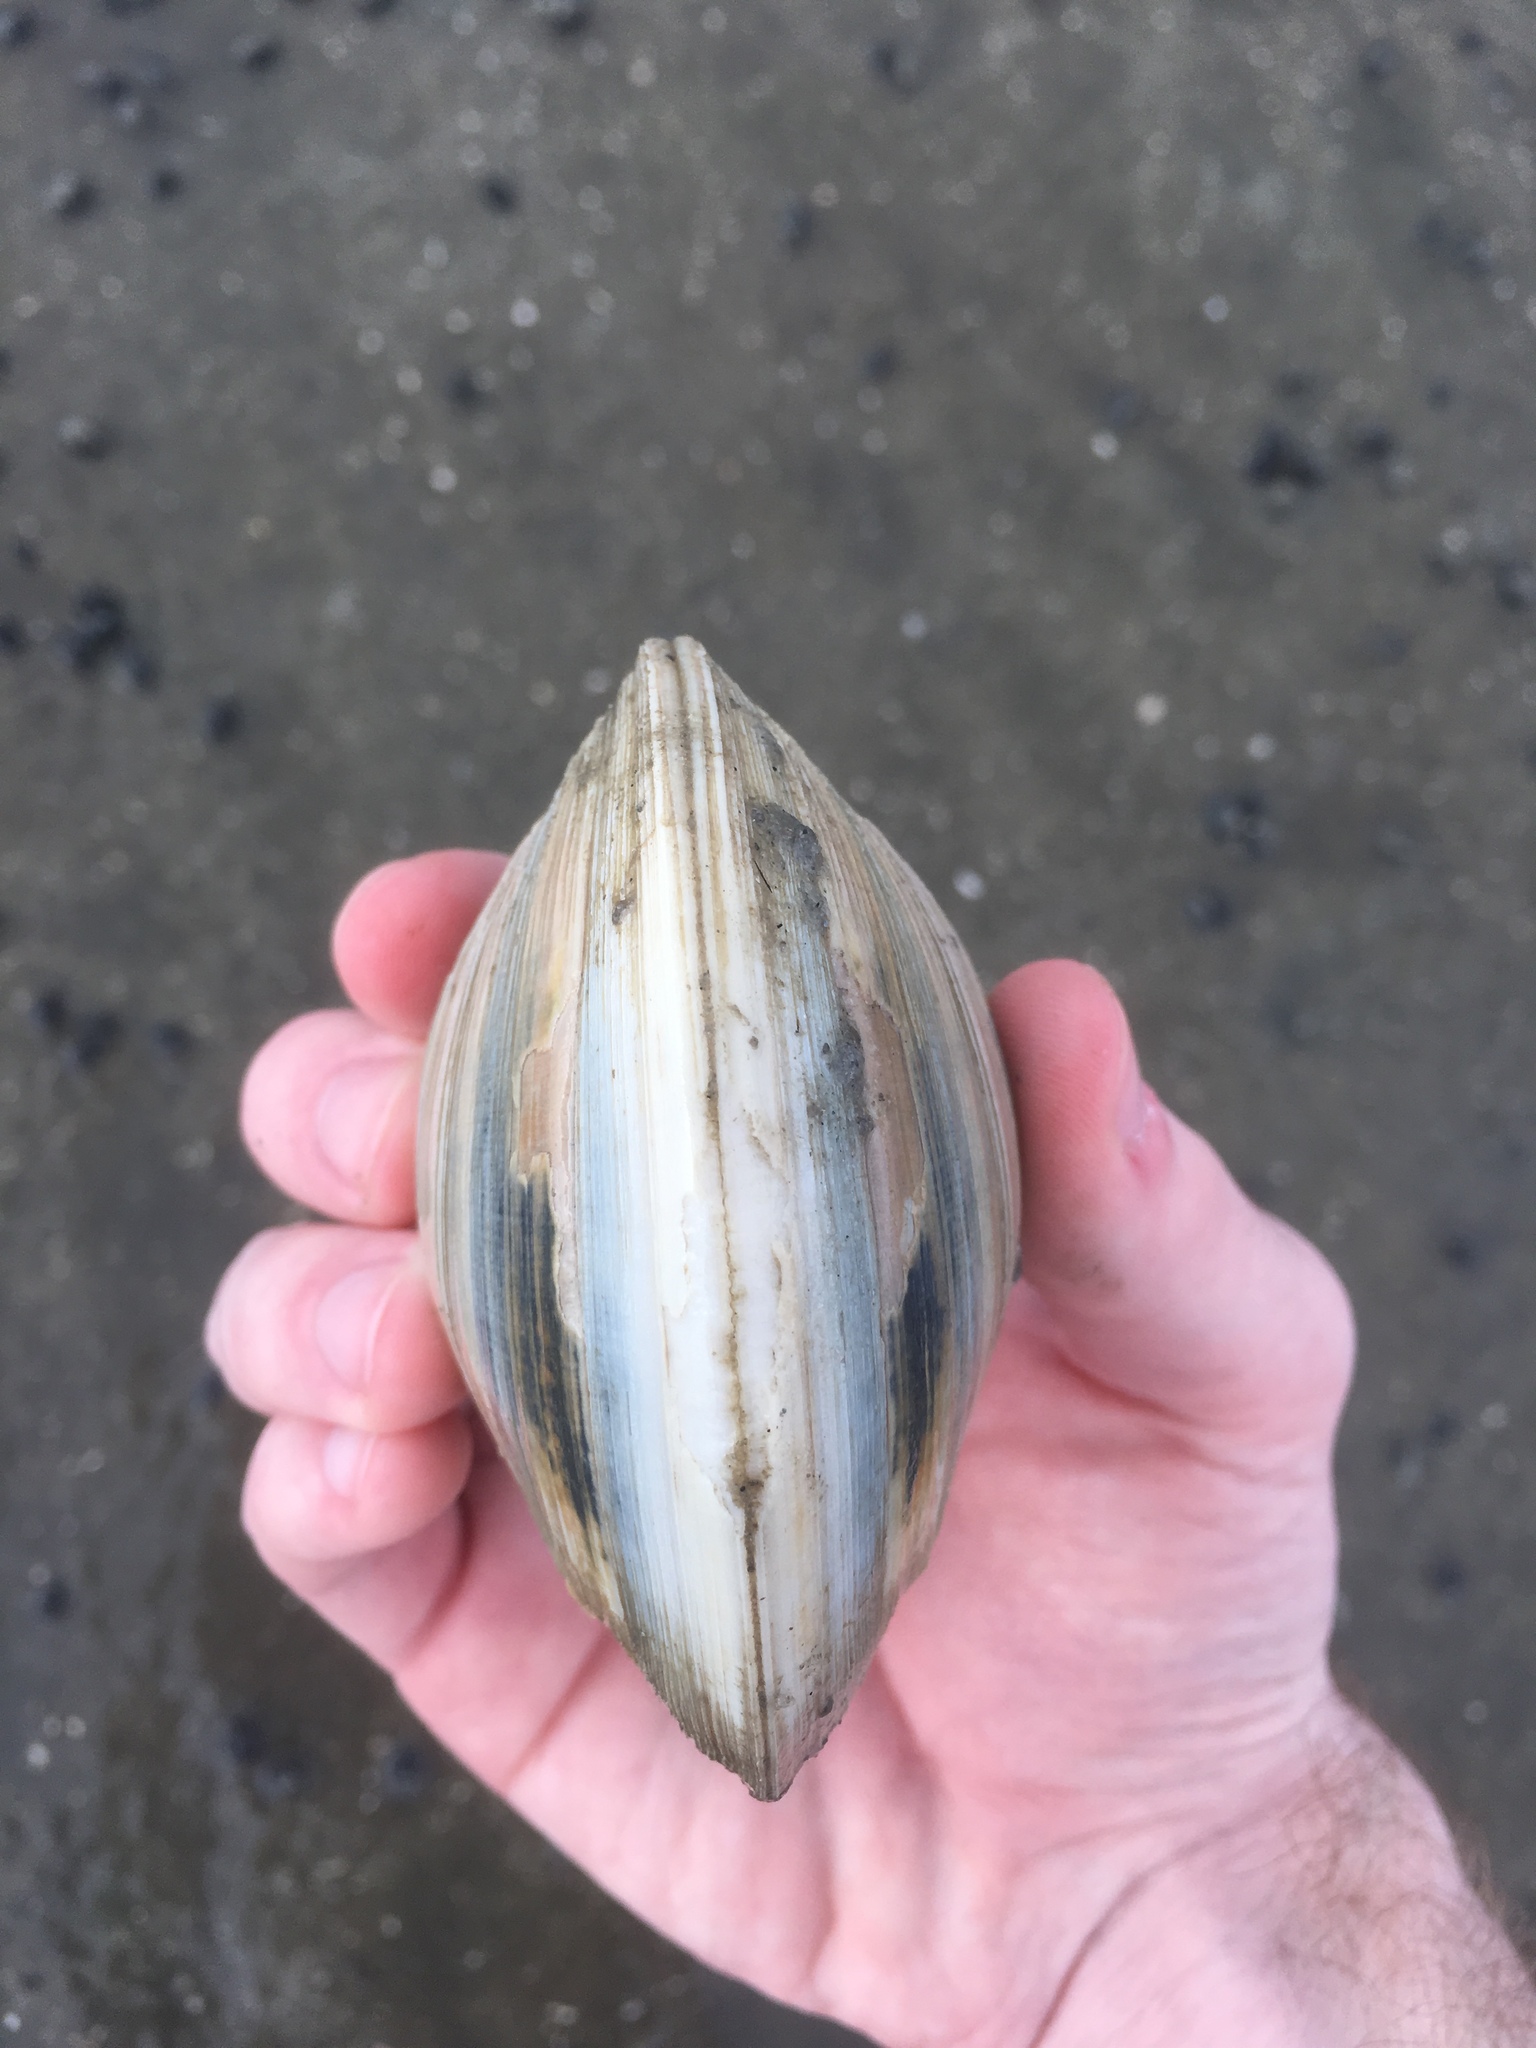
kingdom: Animalia
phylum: Mollusca
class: Bivalvia
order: Venerida
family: Veneridae
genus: Mercenaria
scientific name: Mercenaria mercenaria
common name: American hard-shelled clam
